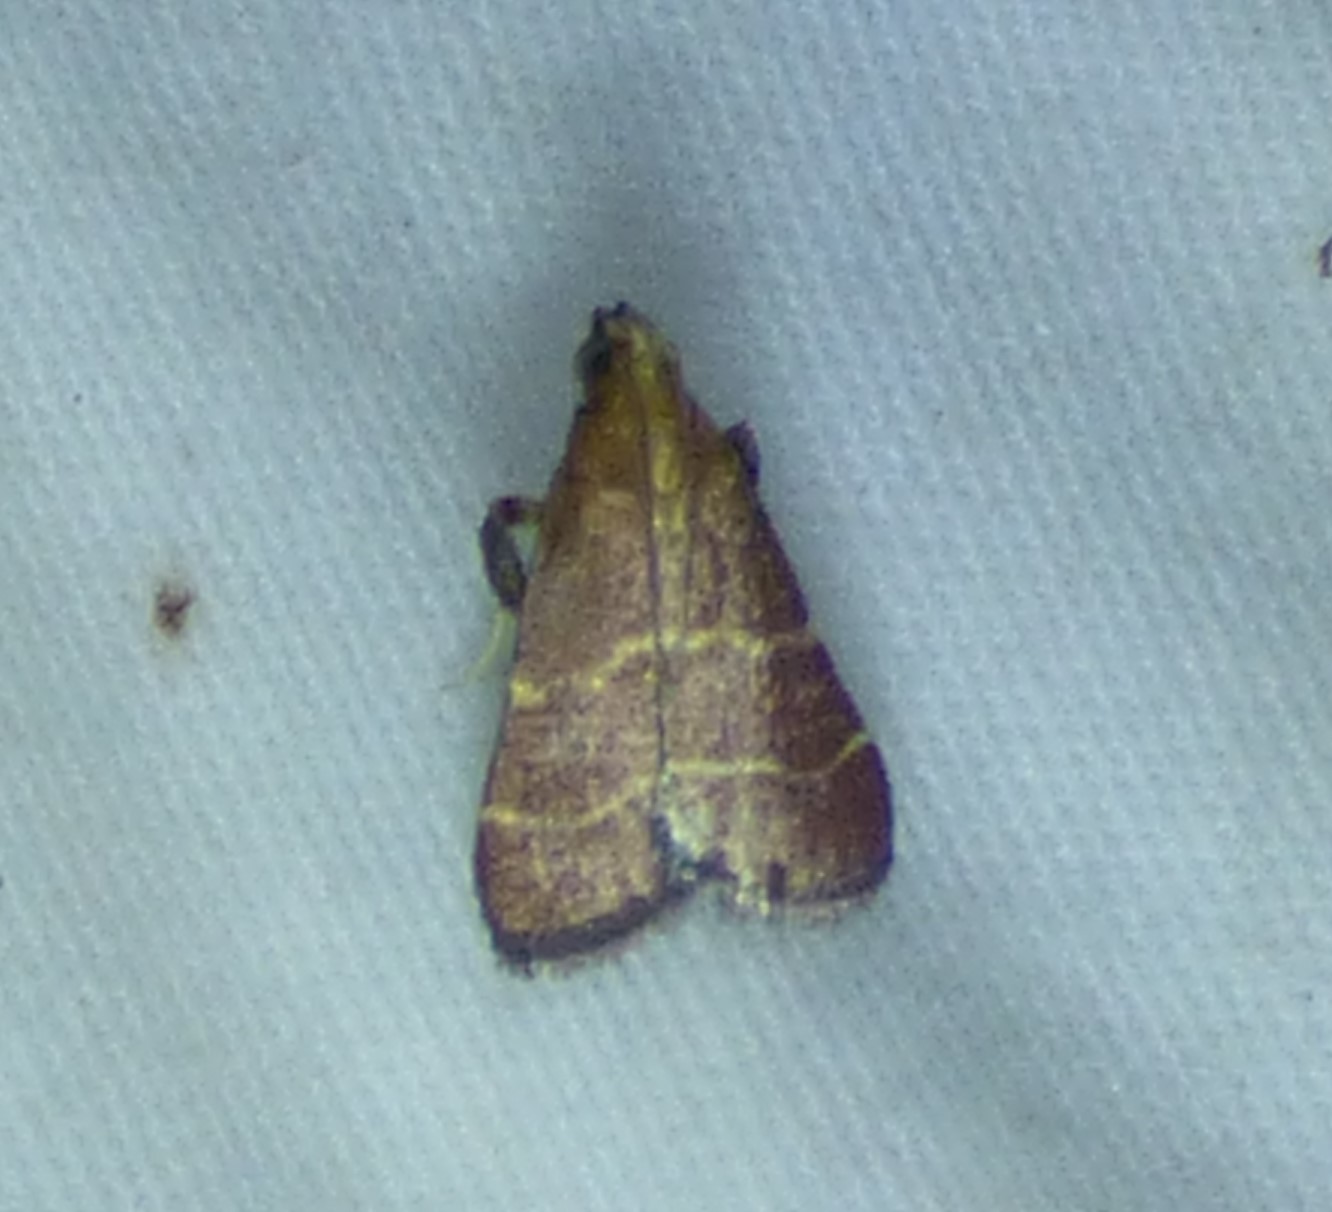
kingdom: Animalia
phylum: Arthropoda
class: Insecta
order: Lepidoptera
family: Pyralidae
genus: Arta
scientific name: Arta statalis
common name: Posturing arta moth
